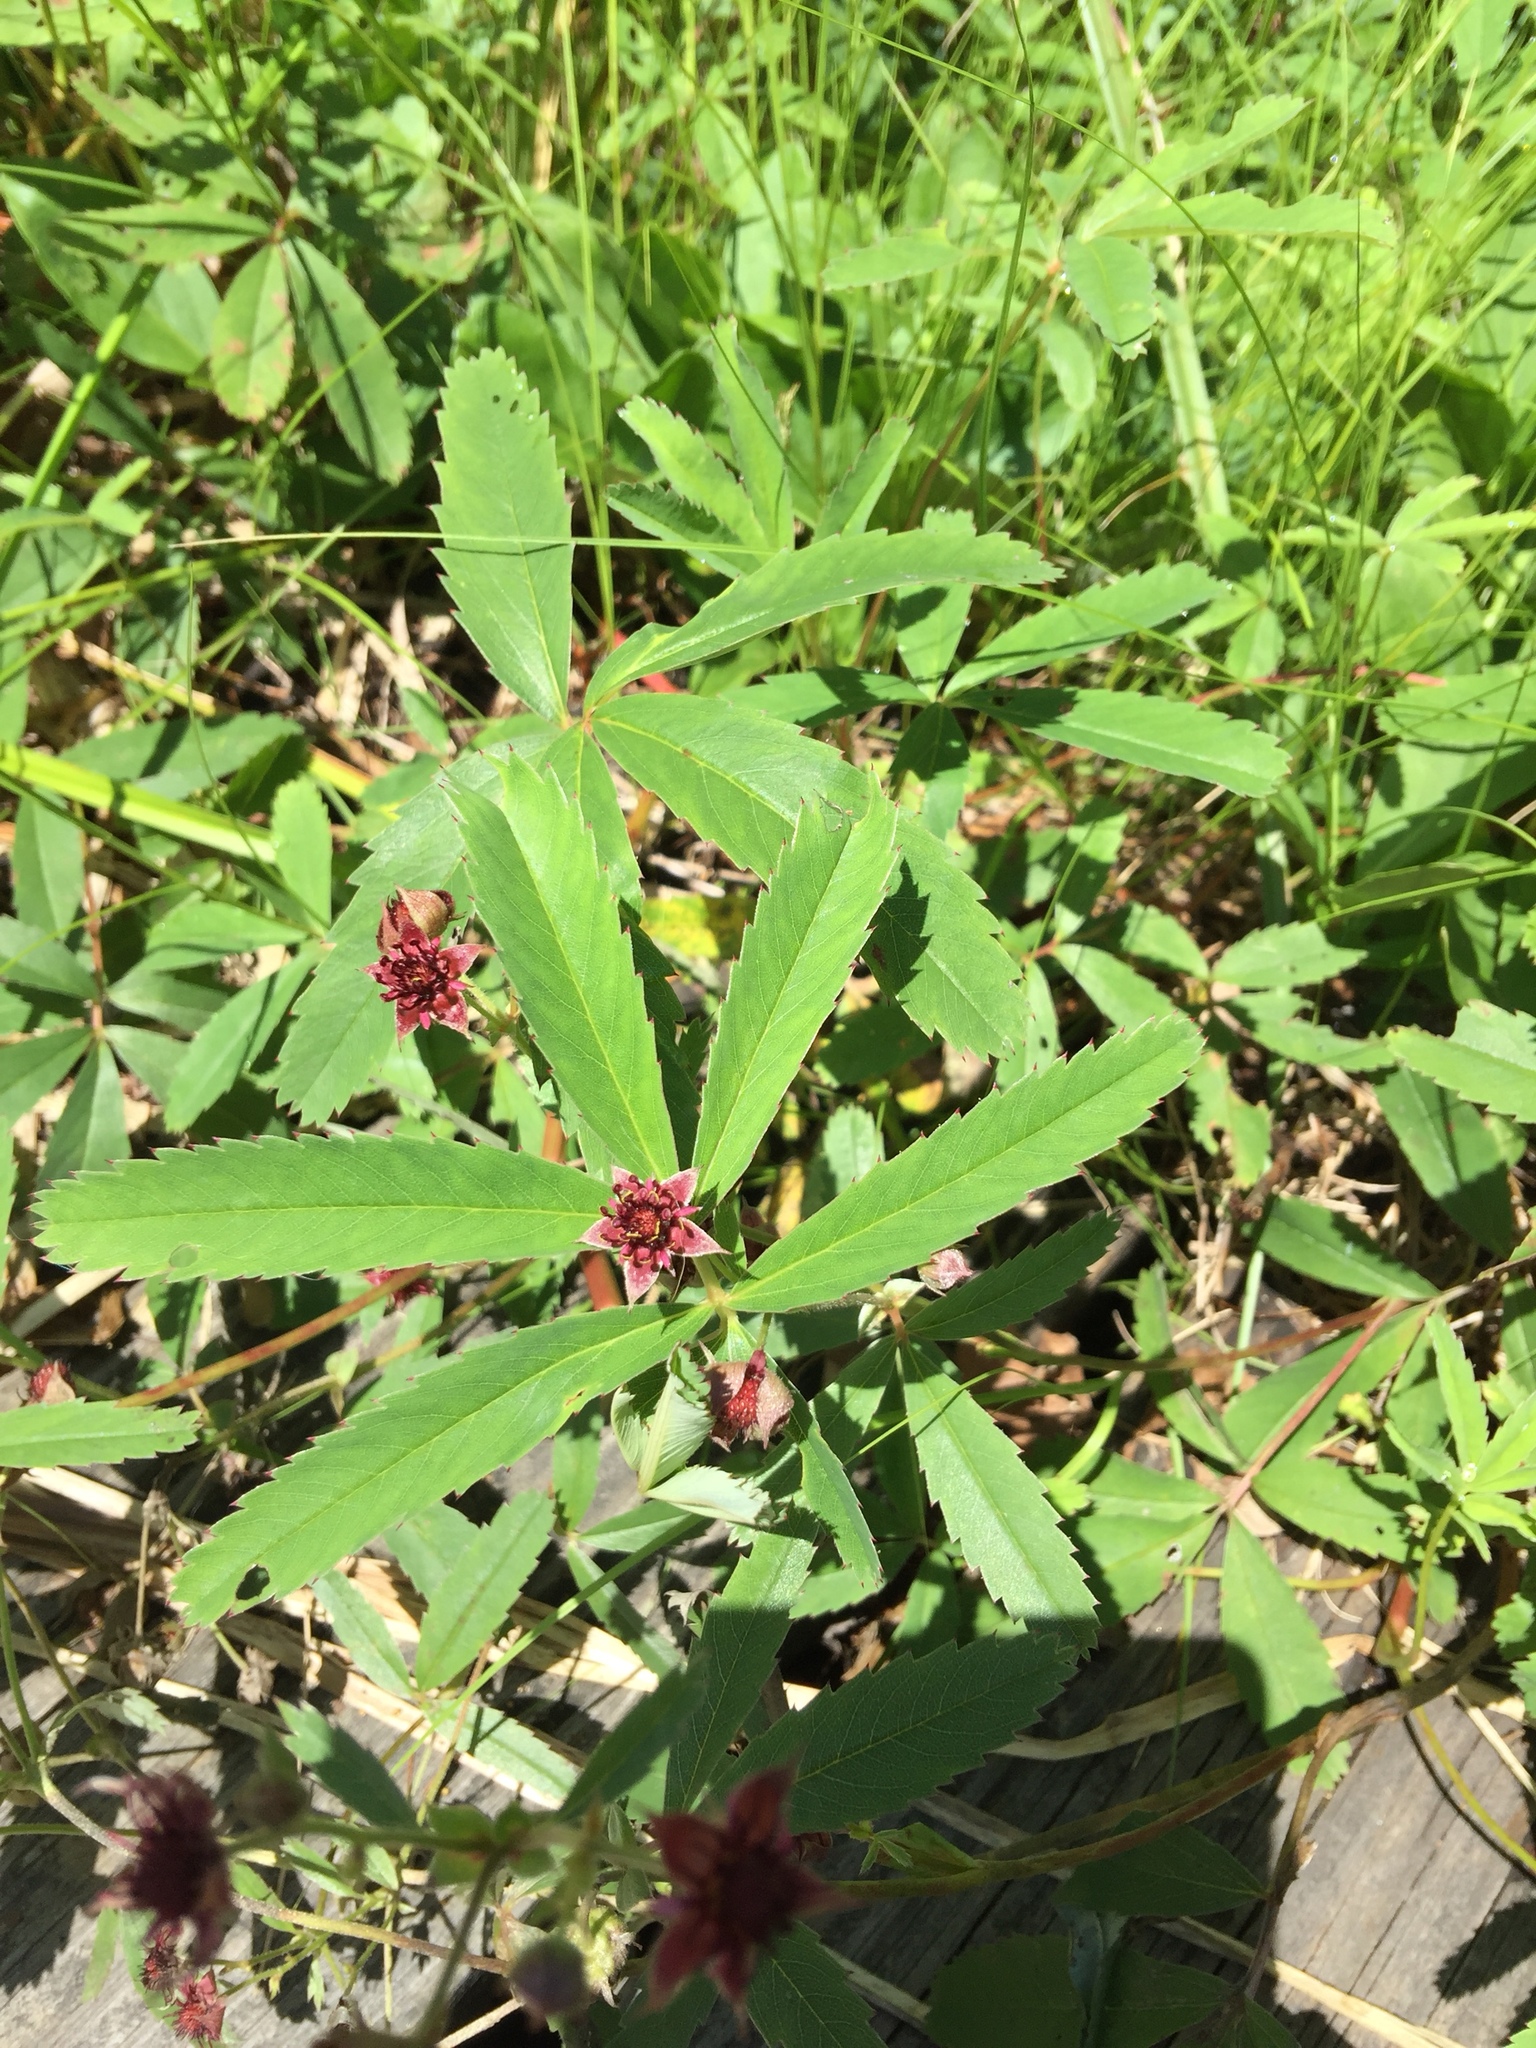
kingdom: Plantae
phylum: Tracheophyta
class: Magnoliopsida
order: Rosales
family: Rosaceae
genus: Comarum
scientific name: Comarum palustre
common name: Marsh cinquefoil
